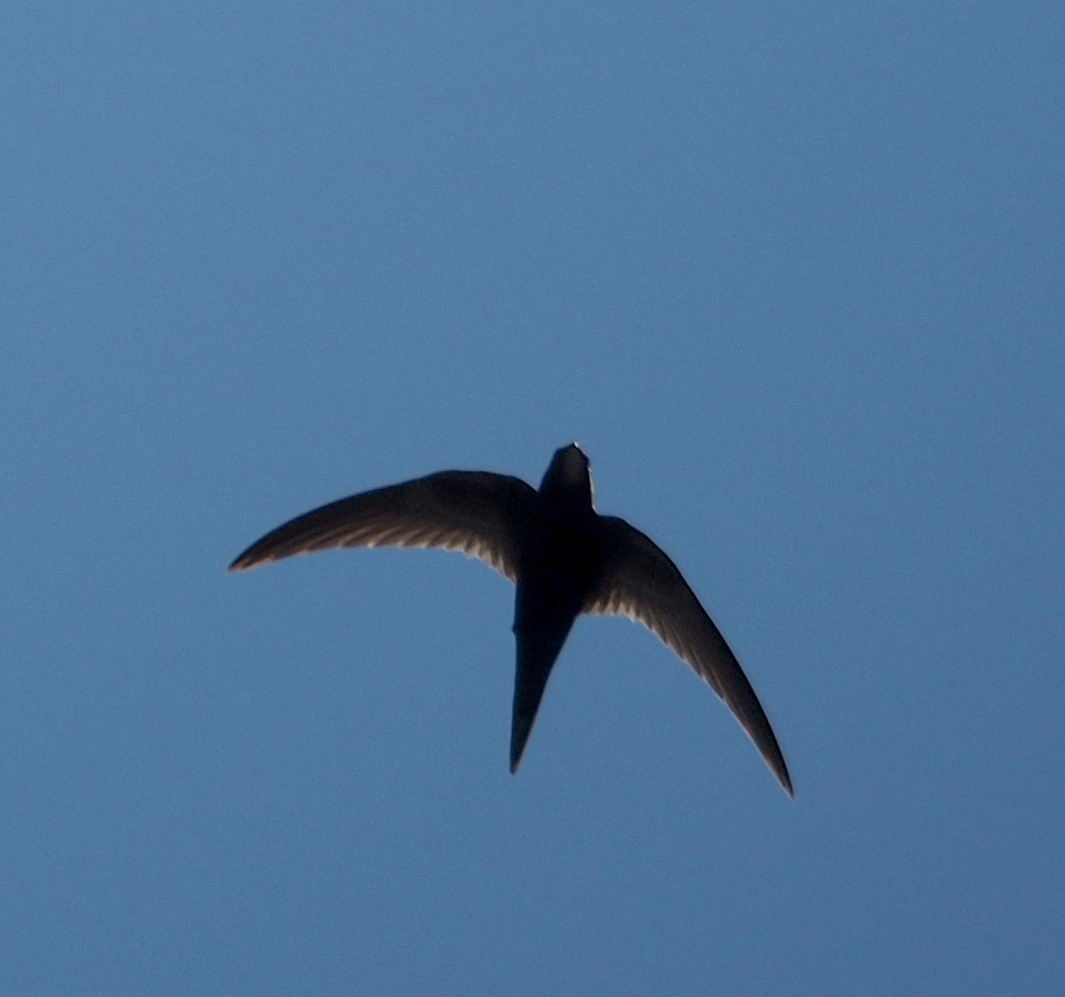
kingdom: Animalia
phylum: Chordata
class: Aves
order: Apodiformes
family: Apodidae
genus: Apus
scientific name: Apus apus
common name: Common swift
